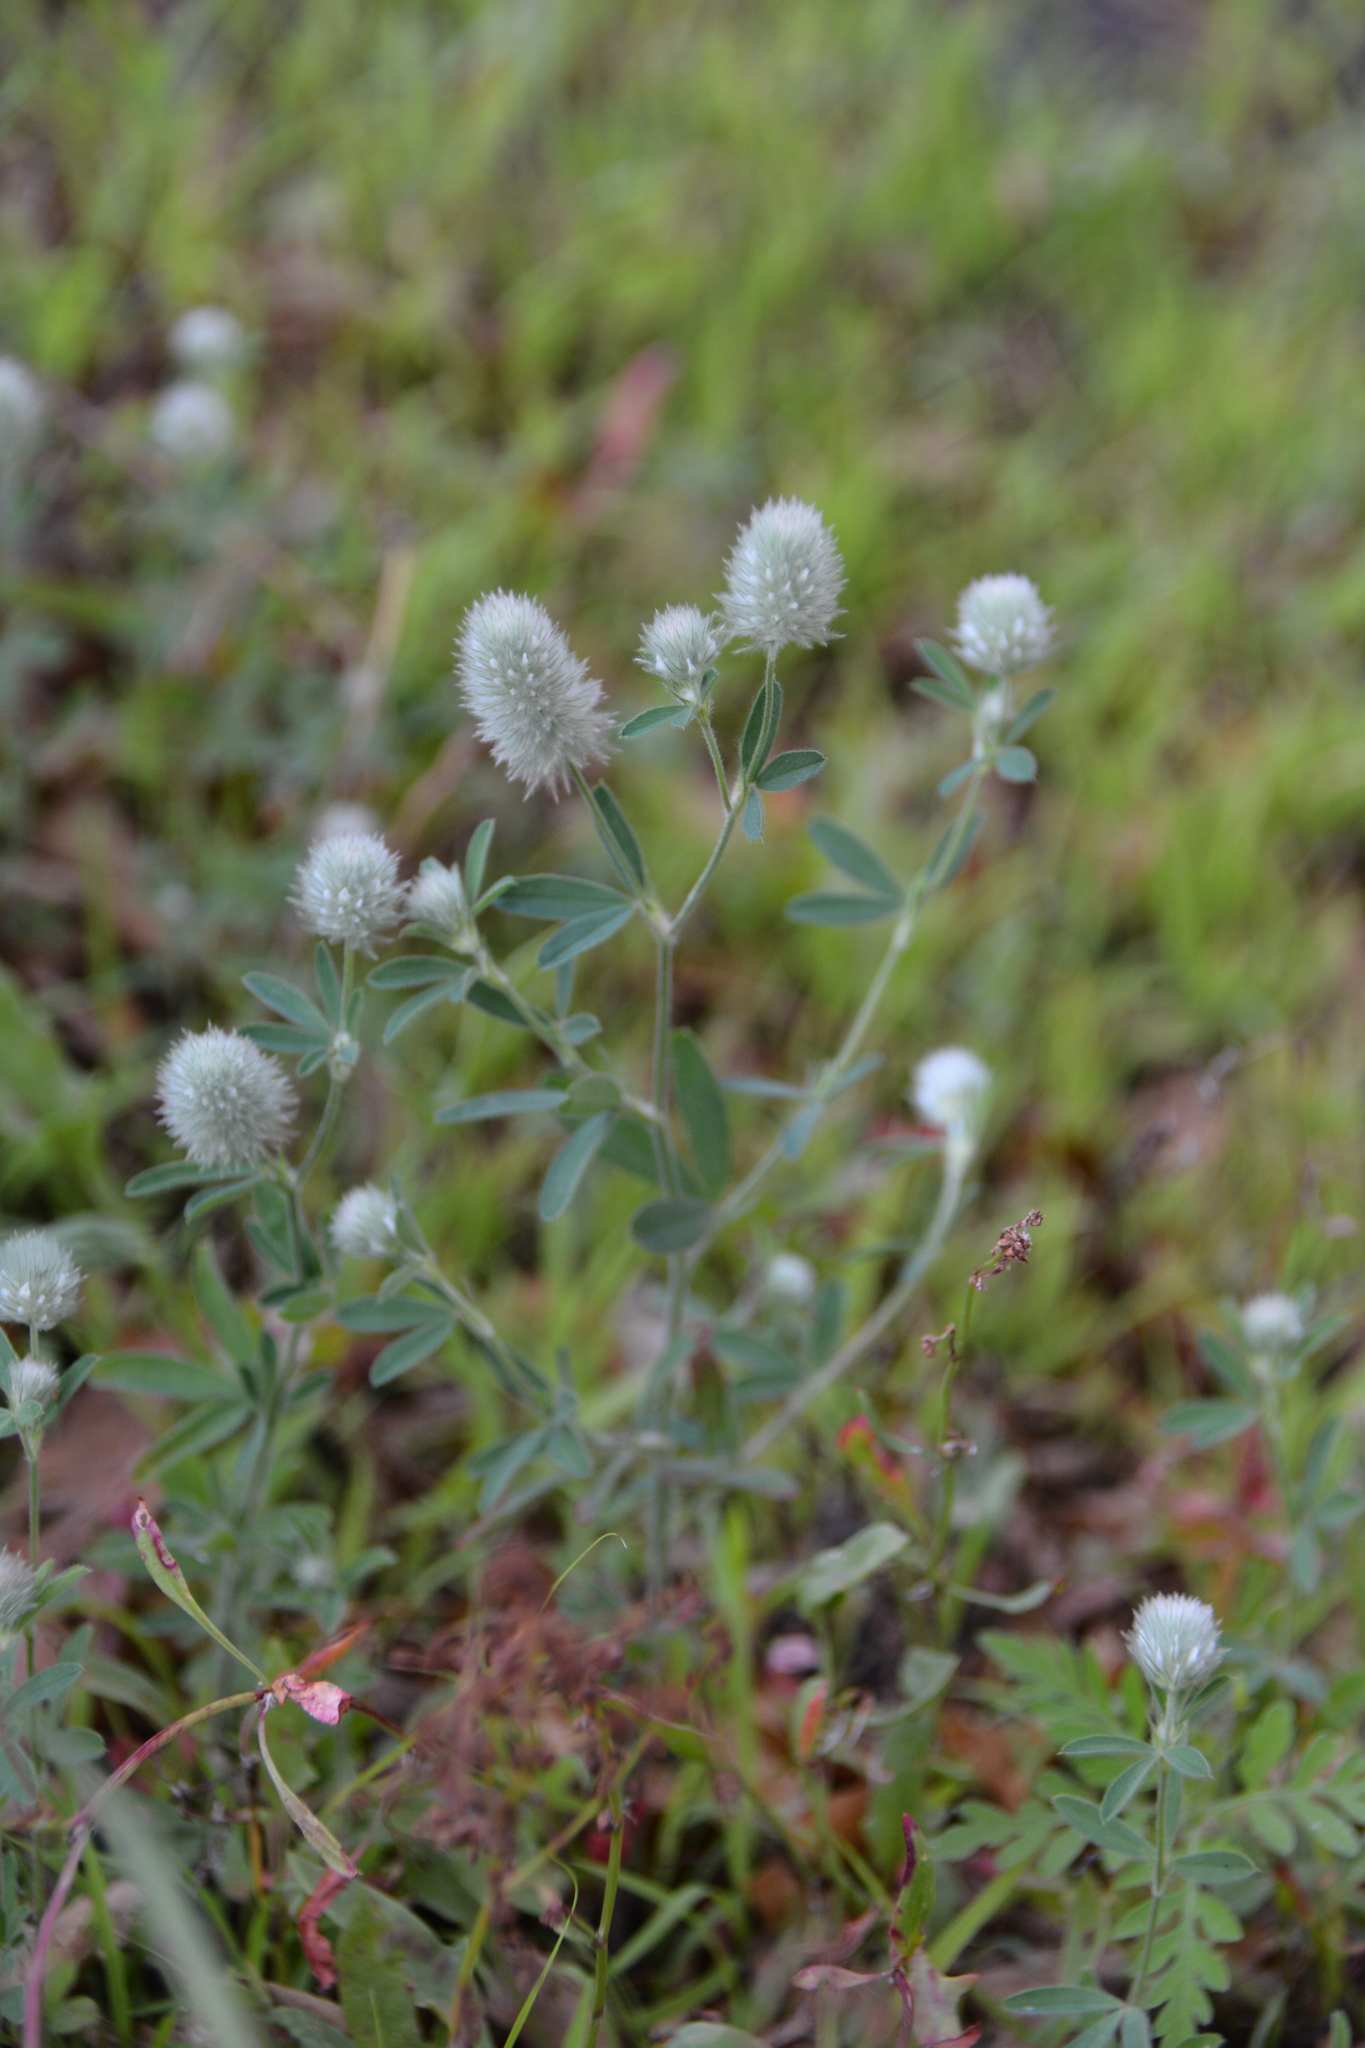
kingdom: Plantae
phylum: Tracheophyta
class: Magnoliopsida
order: Fabales
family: Fabaceae
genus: Trifolium
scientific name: Trifolium arvense
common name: Hare's-foot clover
